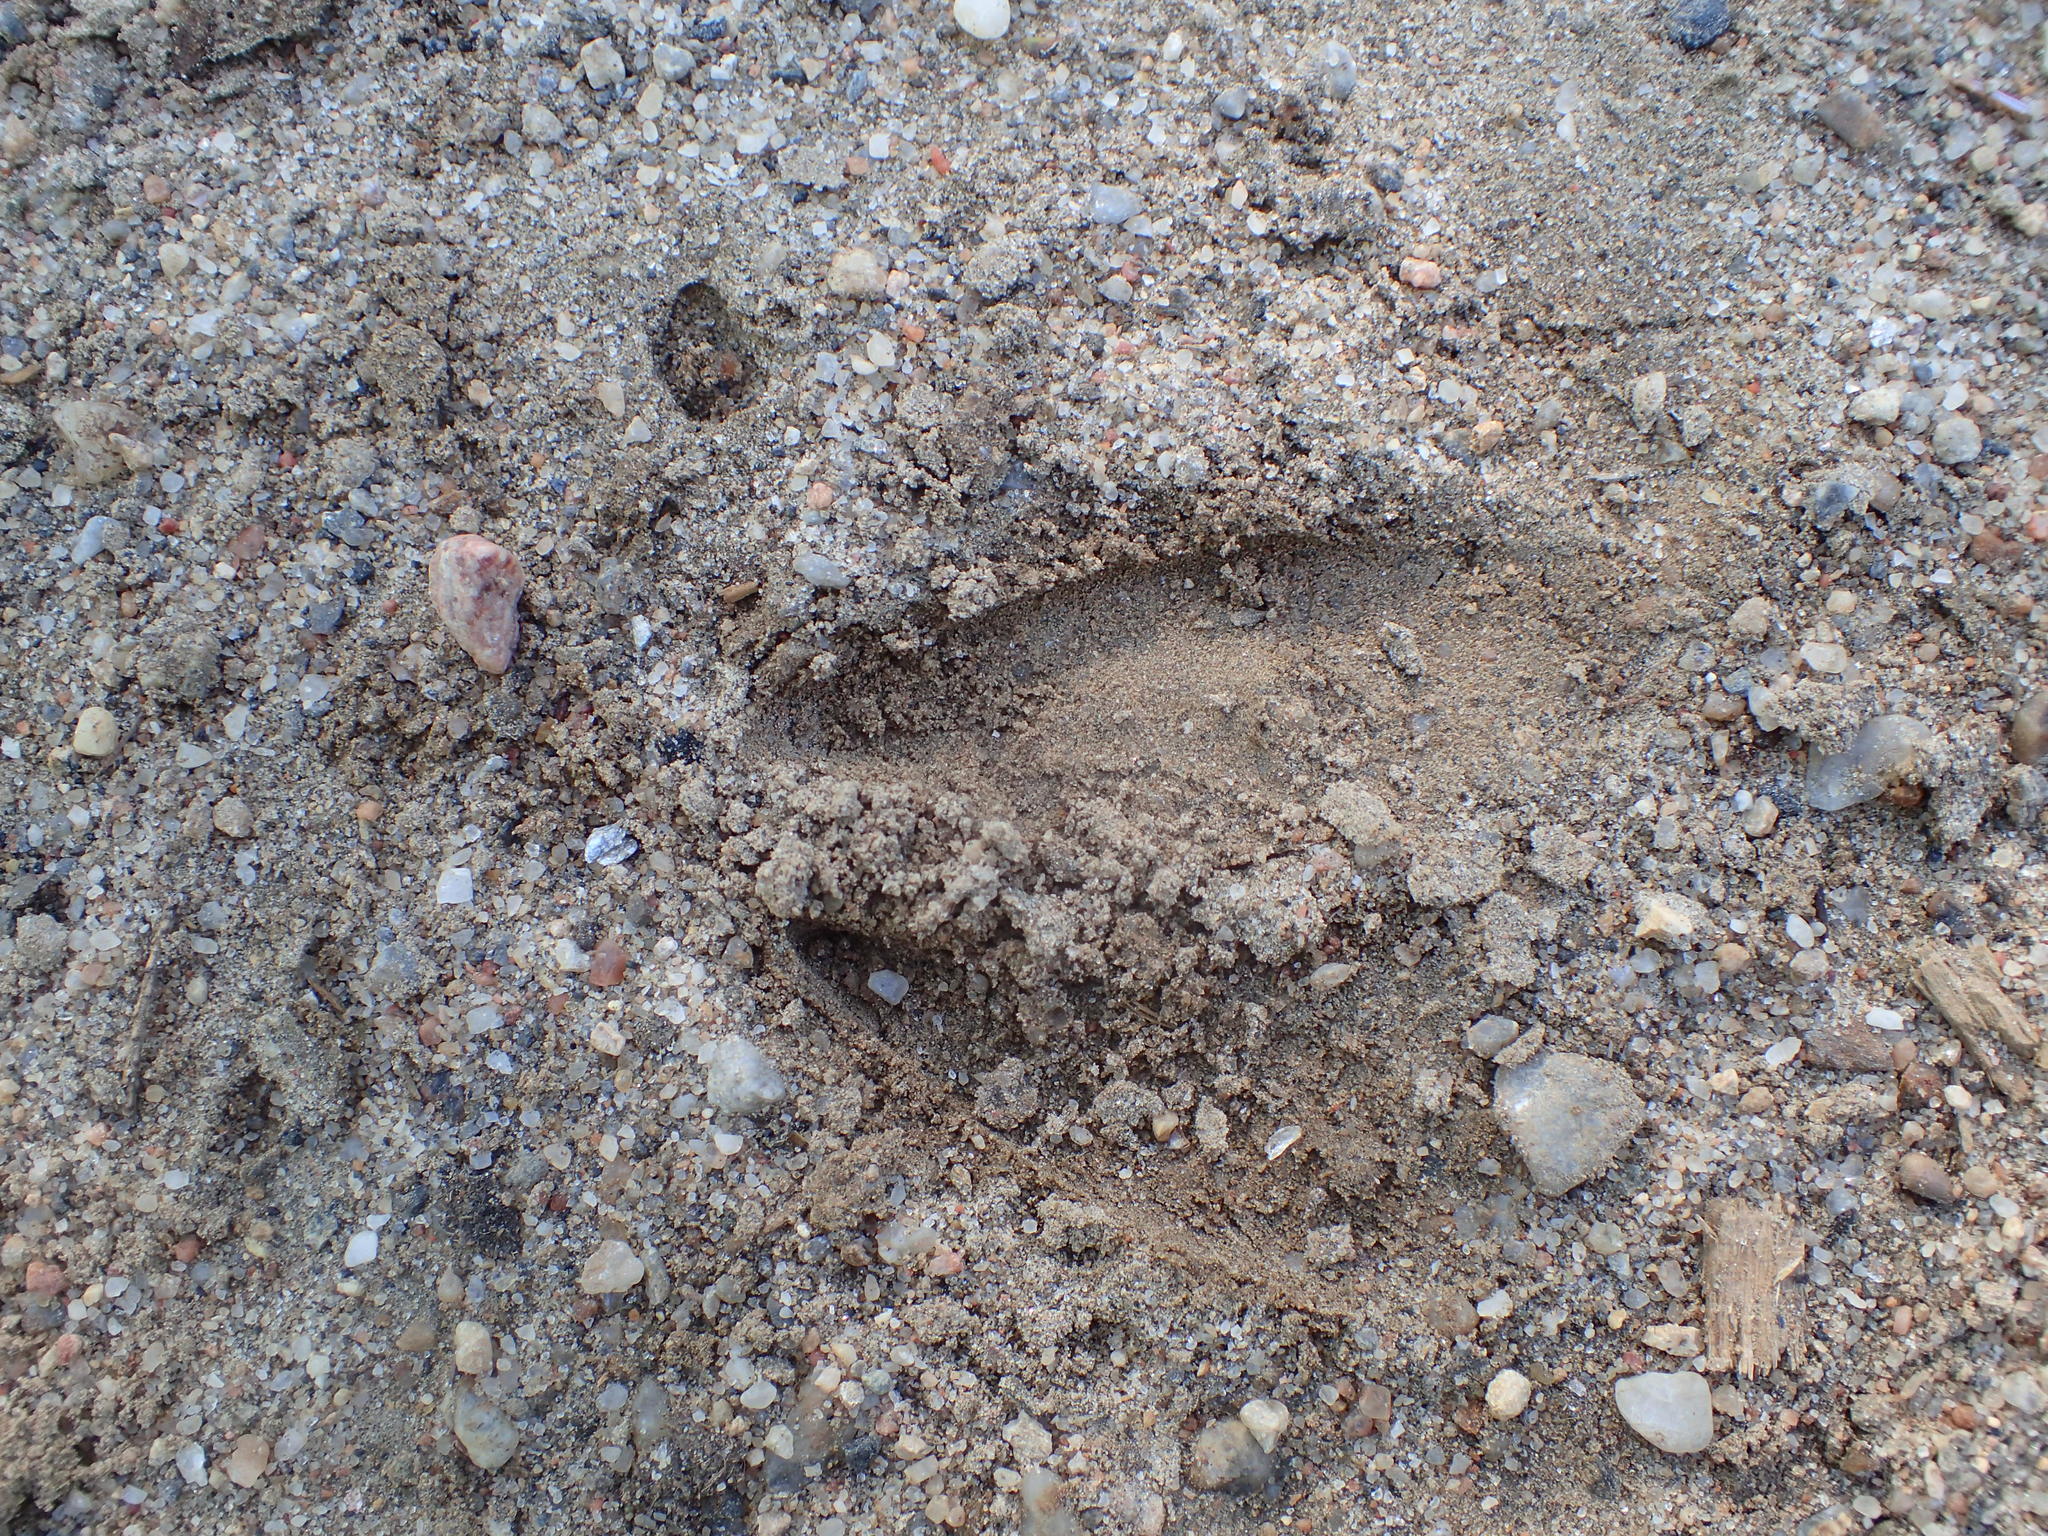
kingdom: Animalia
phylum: Chordata
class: Mammalia
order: Artiodactyla
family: Cervidae
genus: Odocoileus
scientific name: Odocoileus virginianus
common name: White-tailed deer
